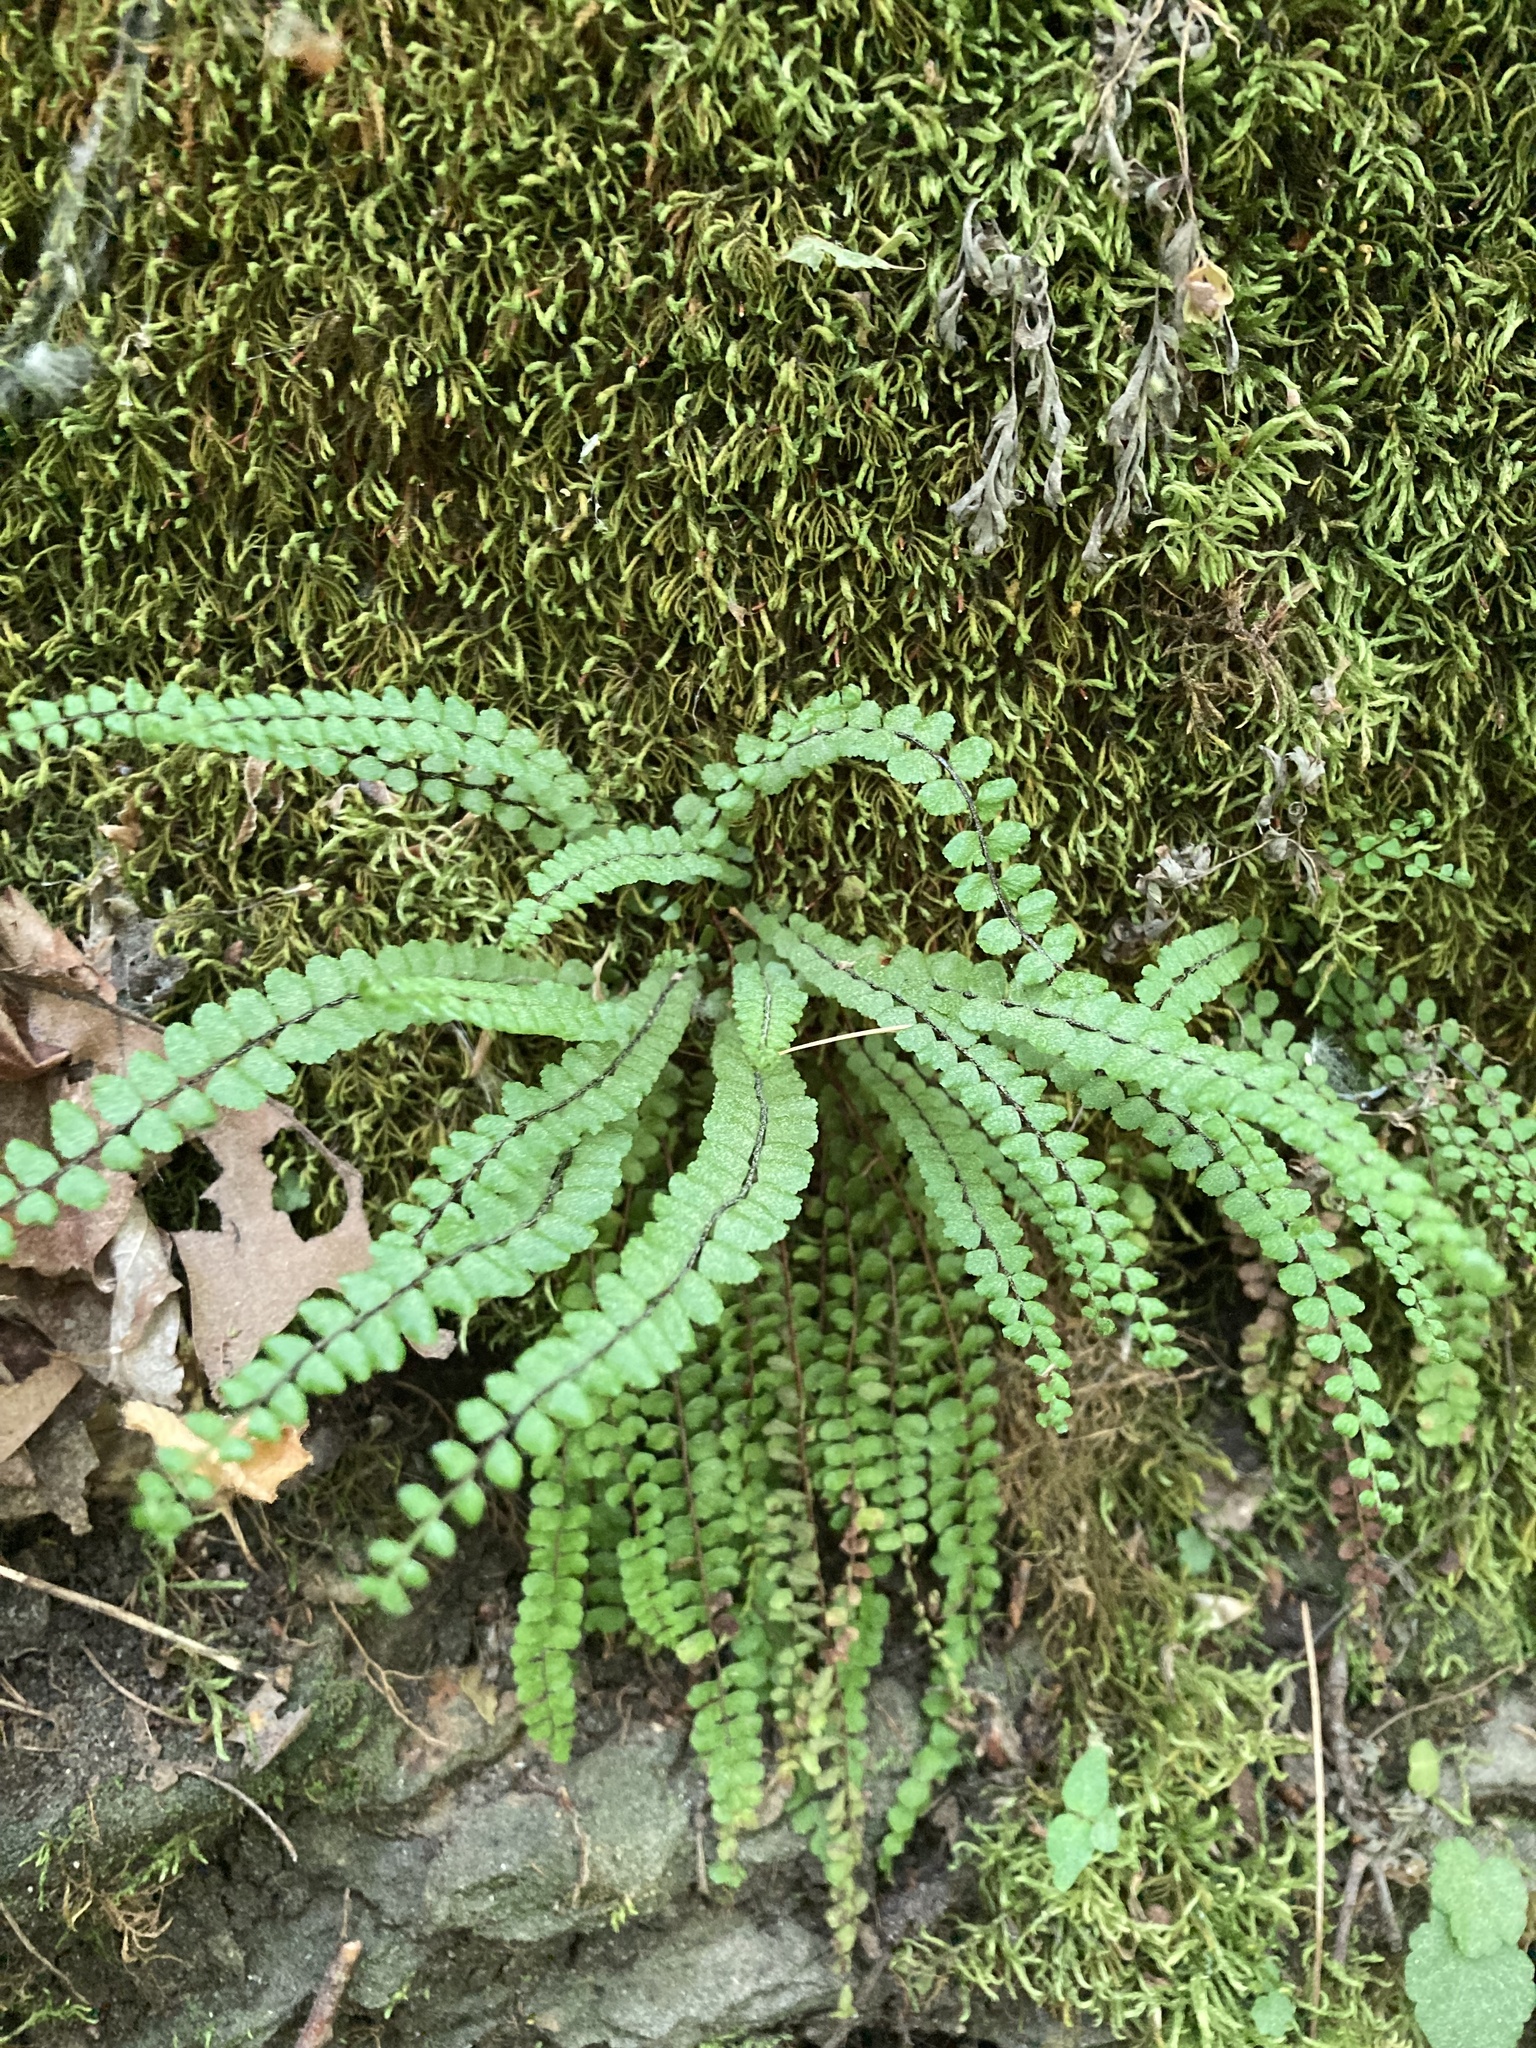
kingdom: Plantae
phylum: Tracheophyta
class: Polypodiopsida
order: Polypodiales
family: Aspleniaceae
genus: Asplenium
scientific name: Asplenium trichomanes
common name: Maidenhair spleenwort
